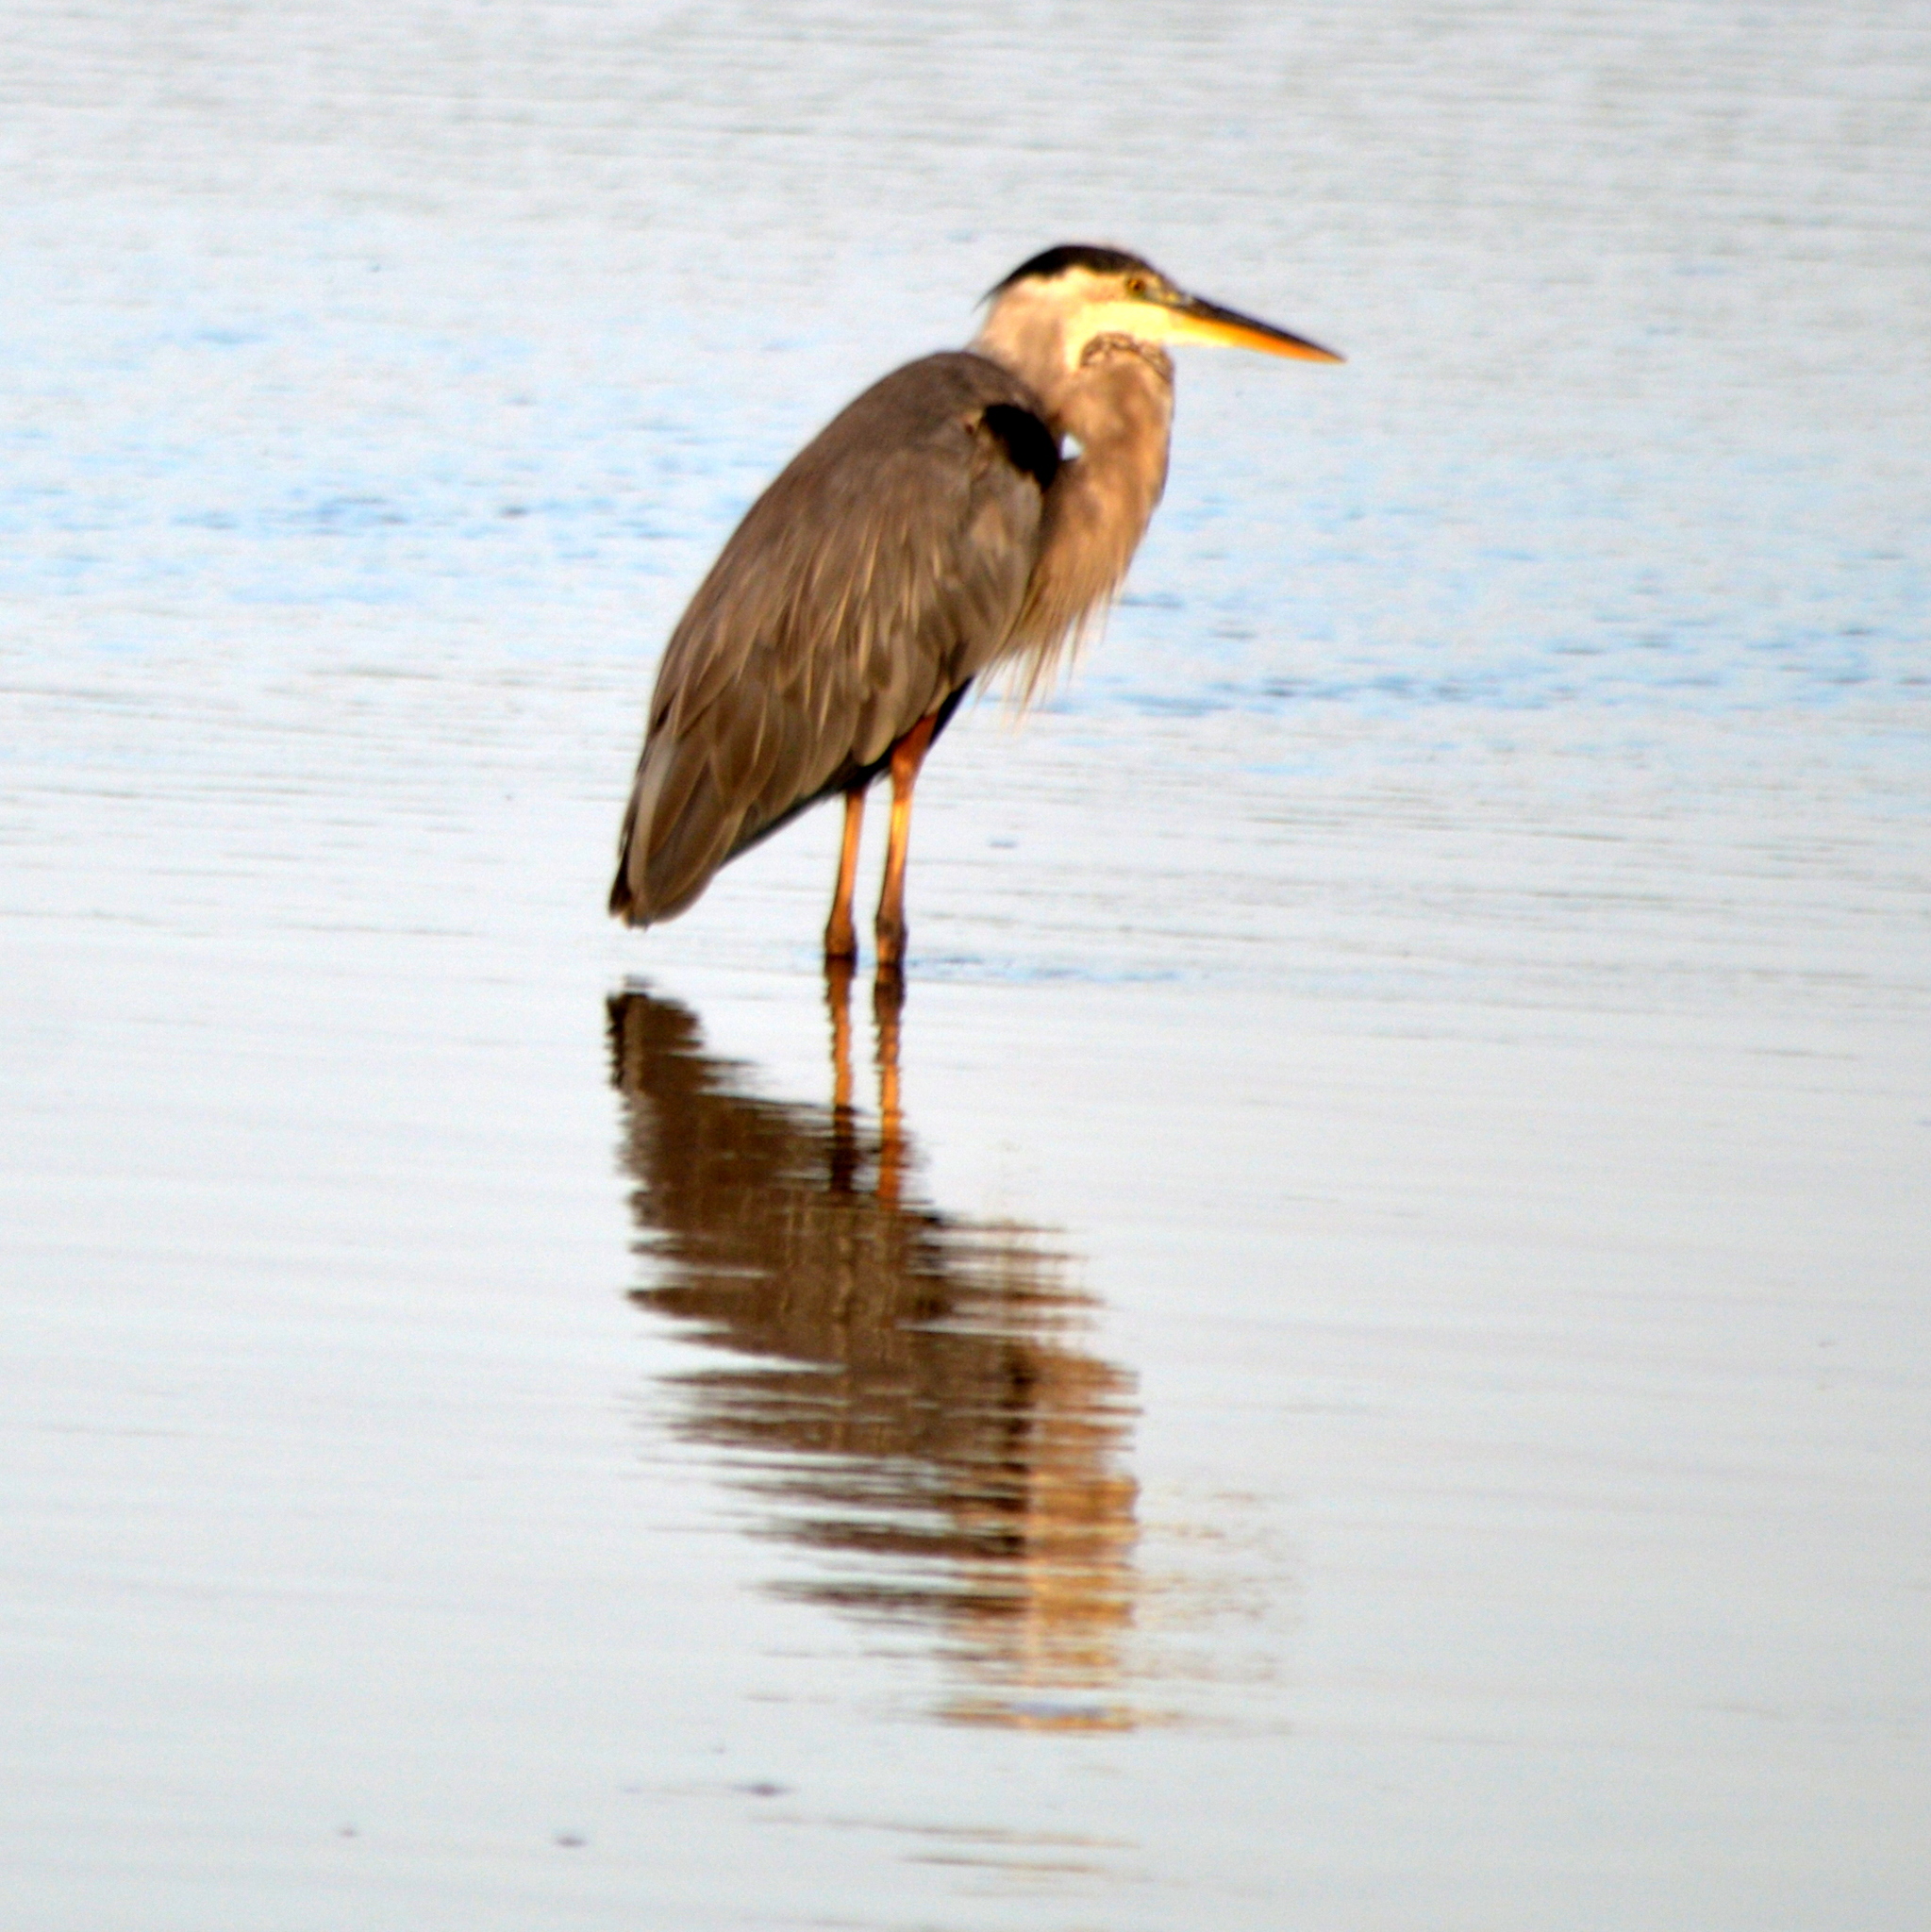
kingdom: Animalia
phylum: Chordata
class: Aves
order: Pelecaniformes
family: Ardeidae
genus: Ardea
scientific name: Ardea herodias
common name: Great blue heron
